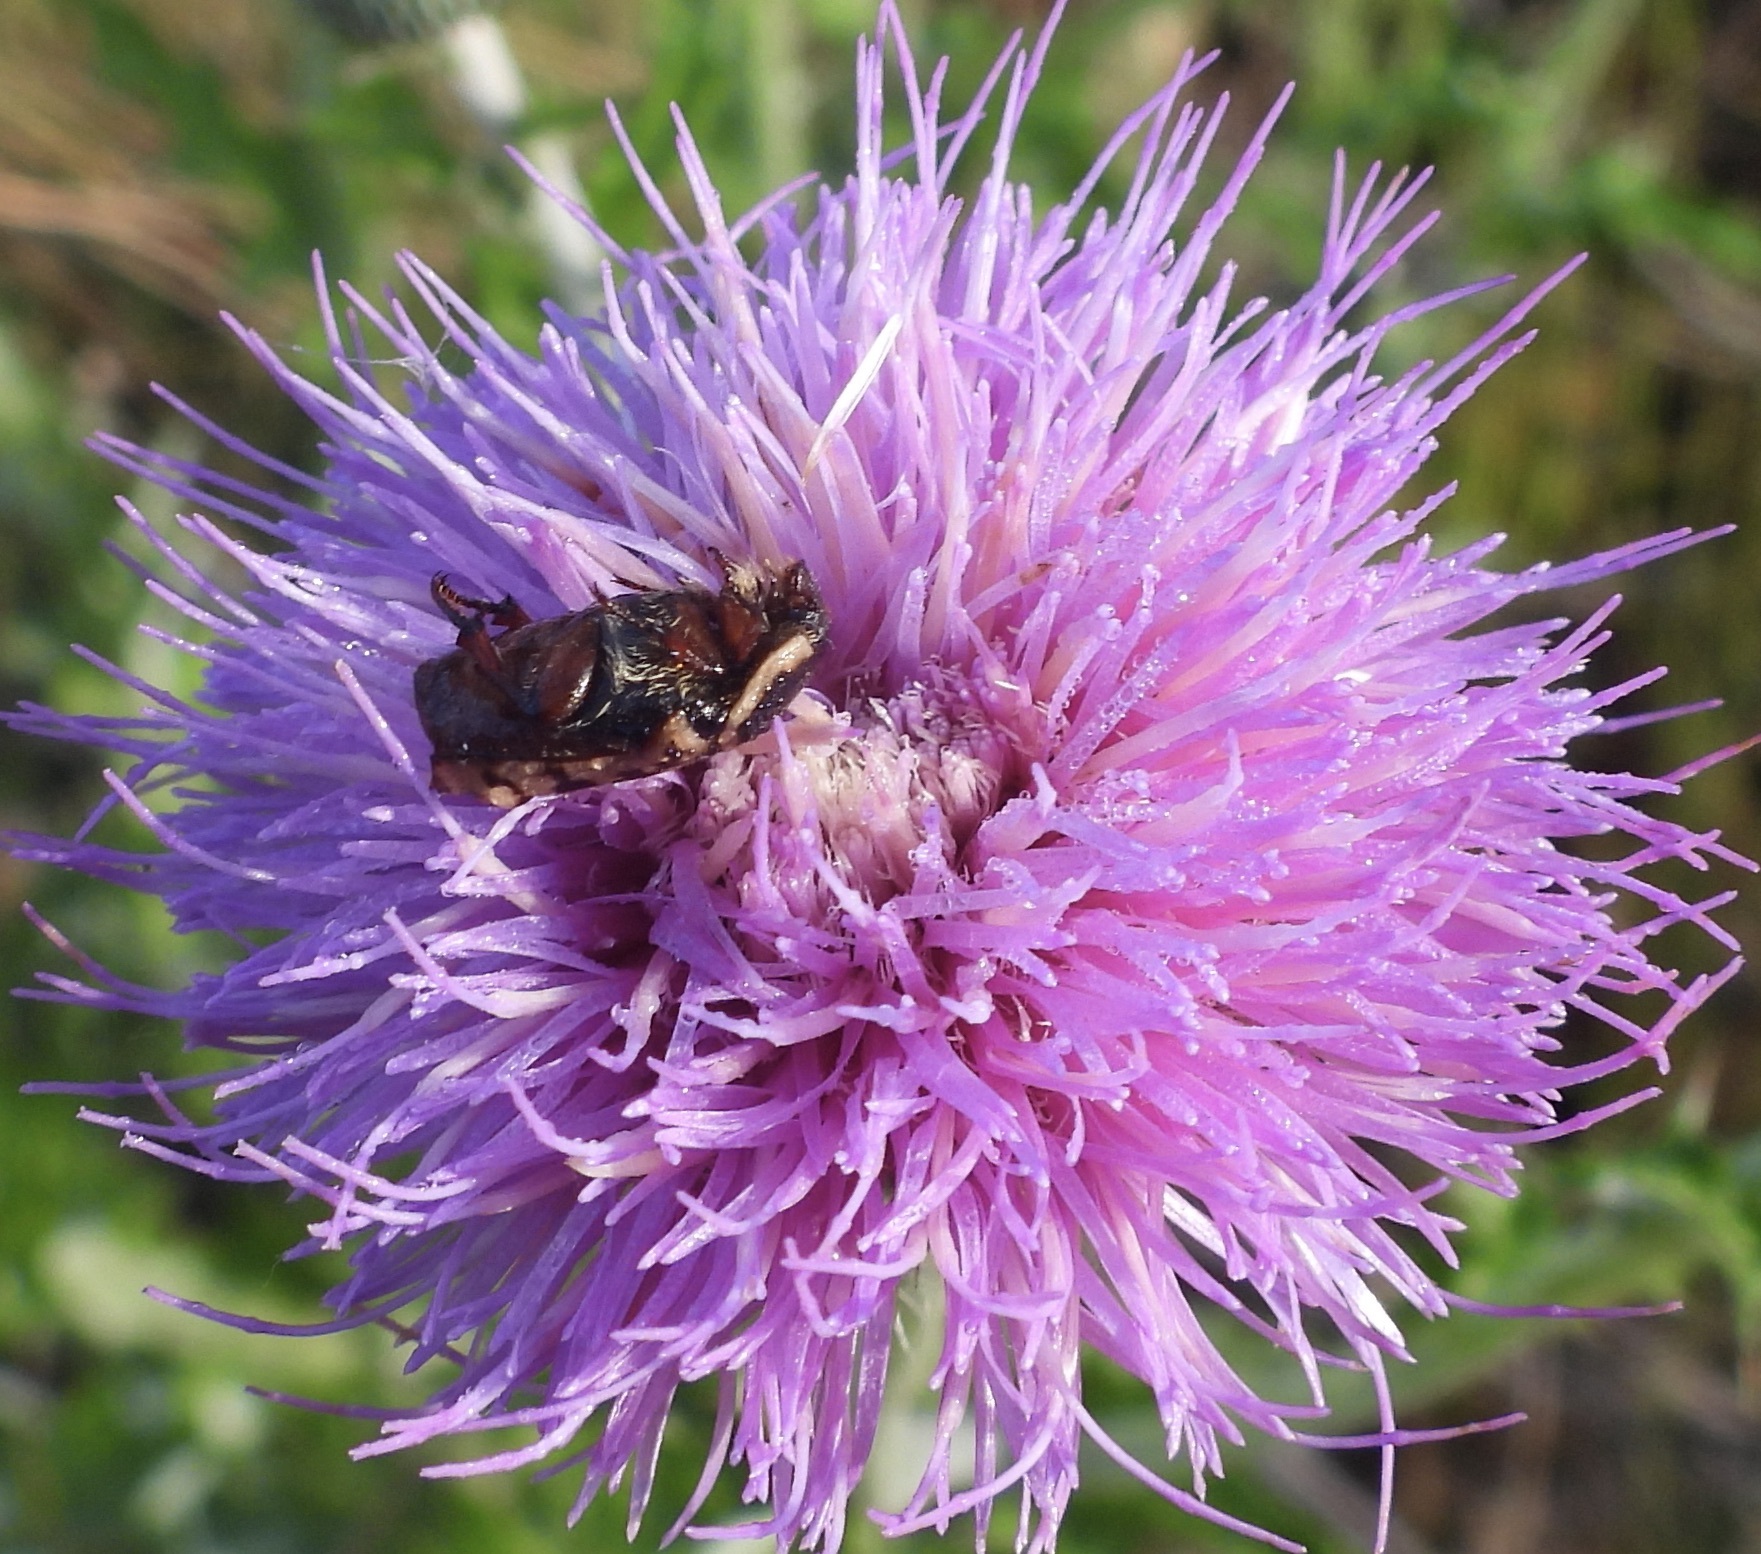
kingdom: Animalia
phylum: Arthropoda
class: Insecta
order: Coleoptera
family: Scarabaeidae
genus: Euphoria
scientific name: Euphoria kernii
